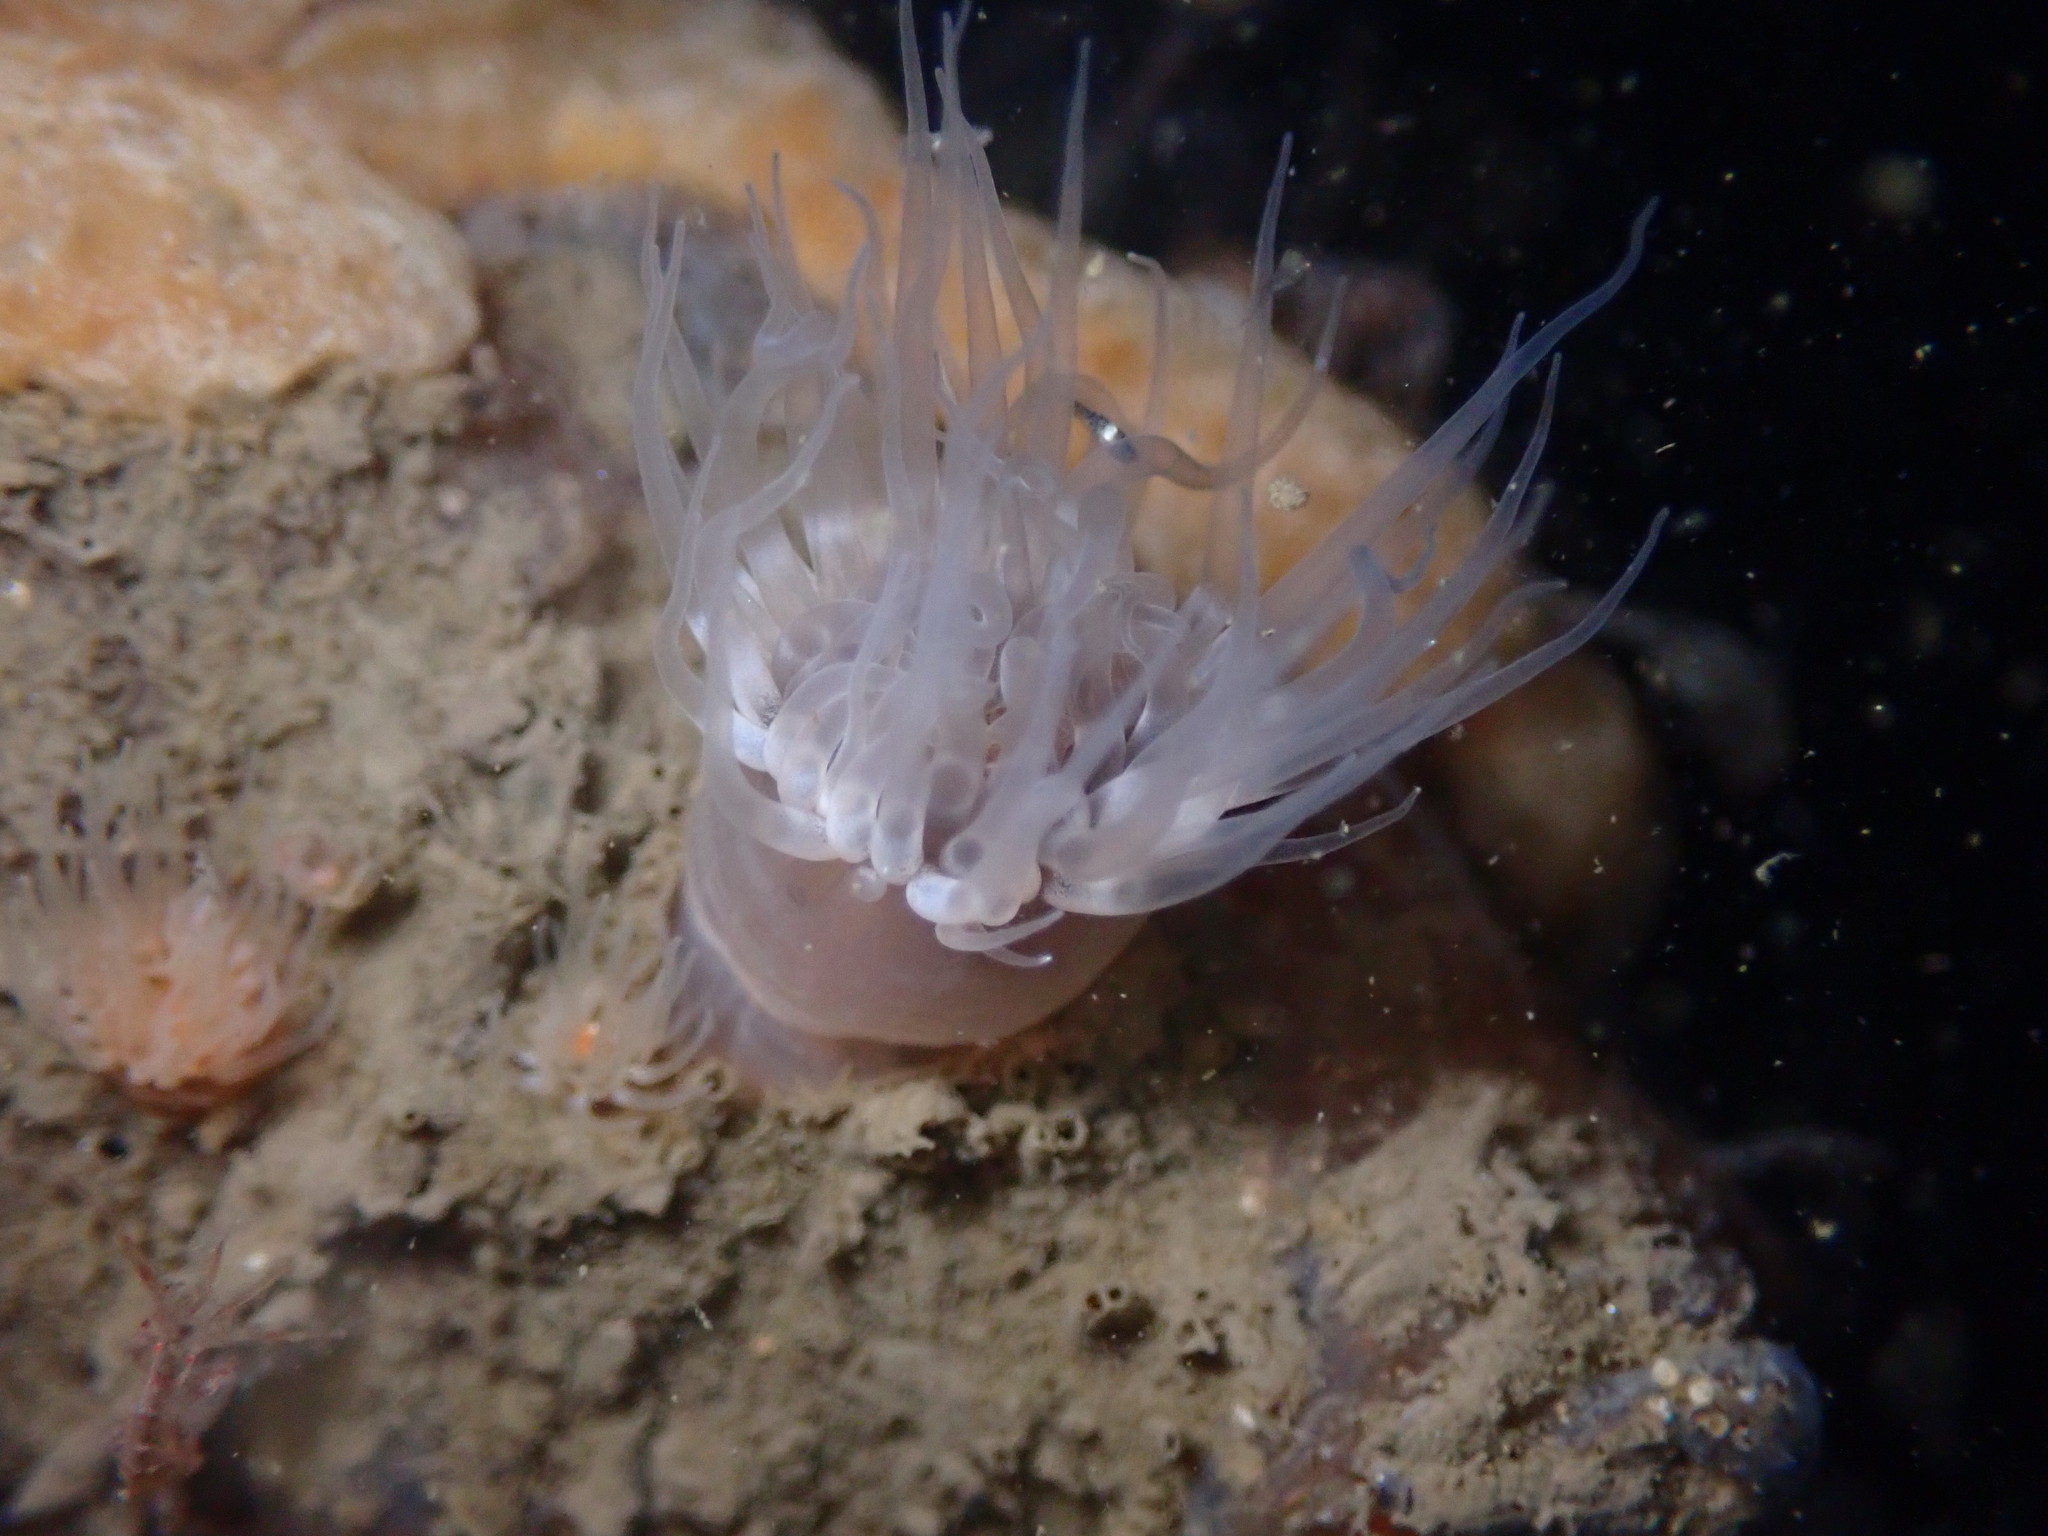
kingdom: Animalia
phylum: Cnidaria
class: Anthozoa
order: Actiniaria
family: Metridiidae
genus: Metridium
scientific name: Metridium senile
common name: Clonal plumose anemone
